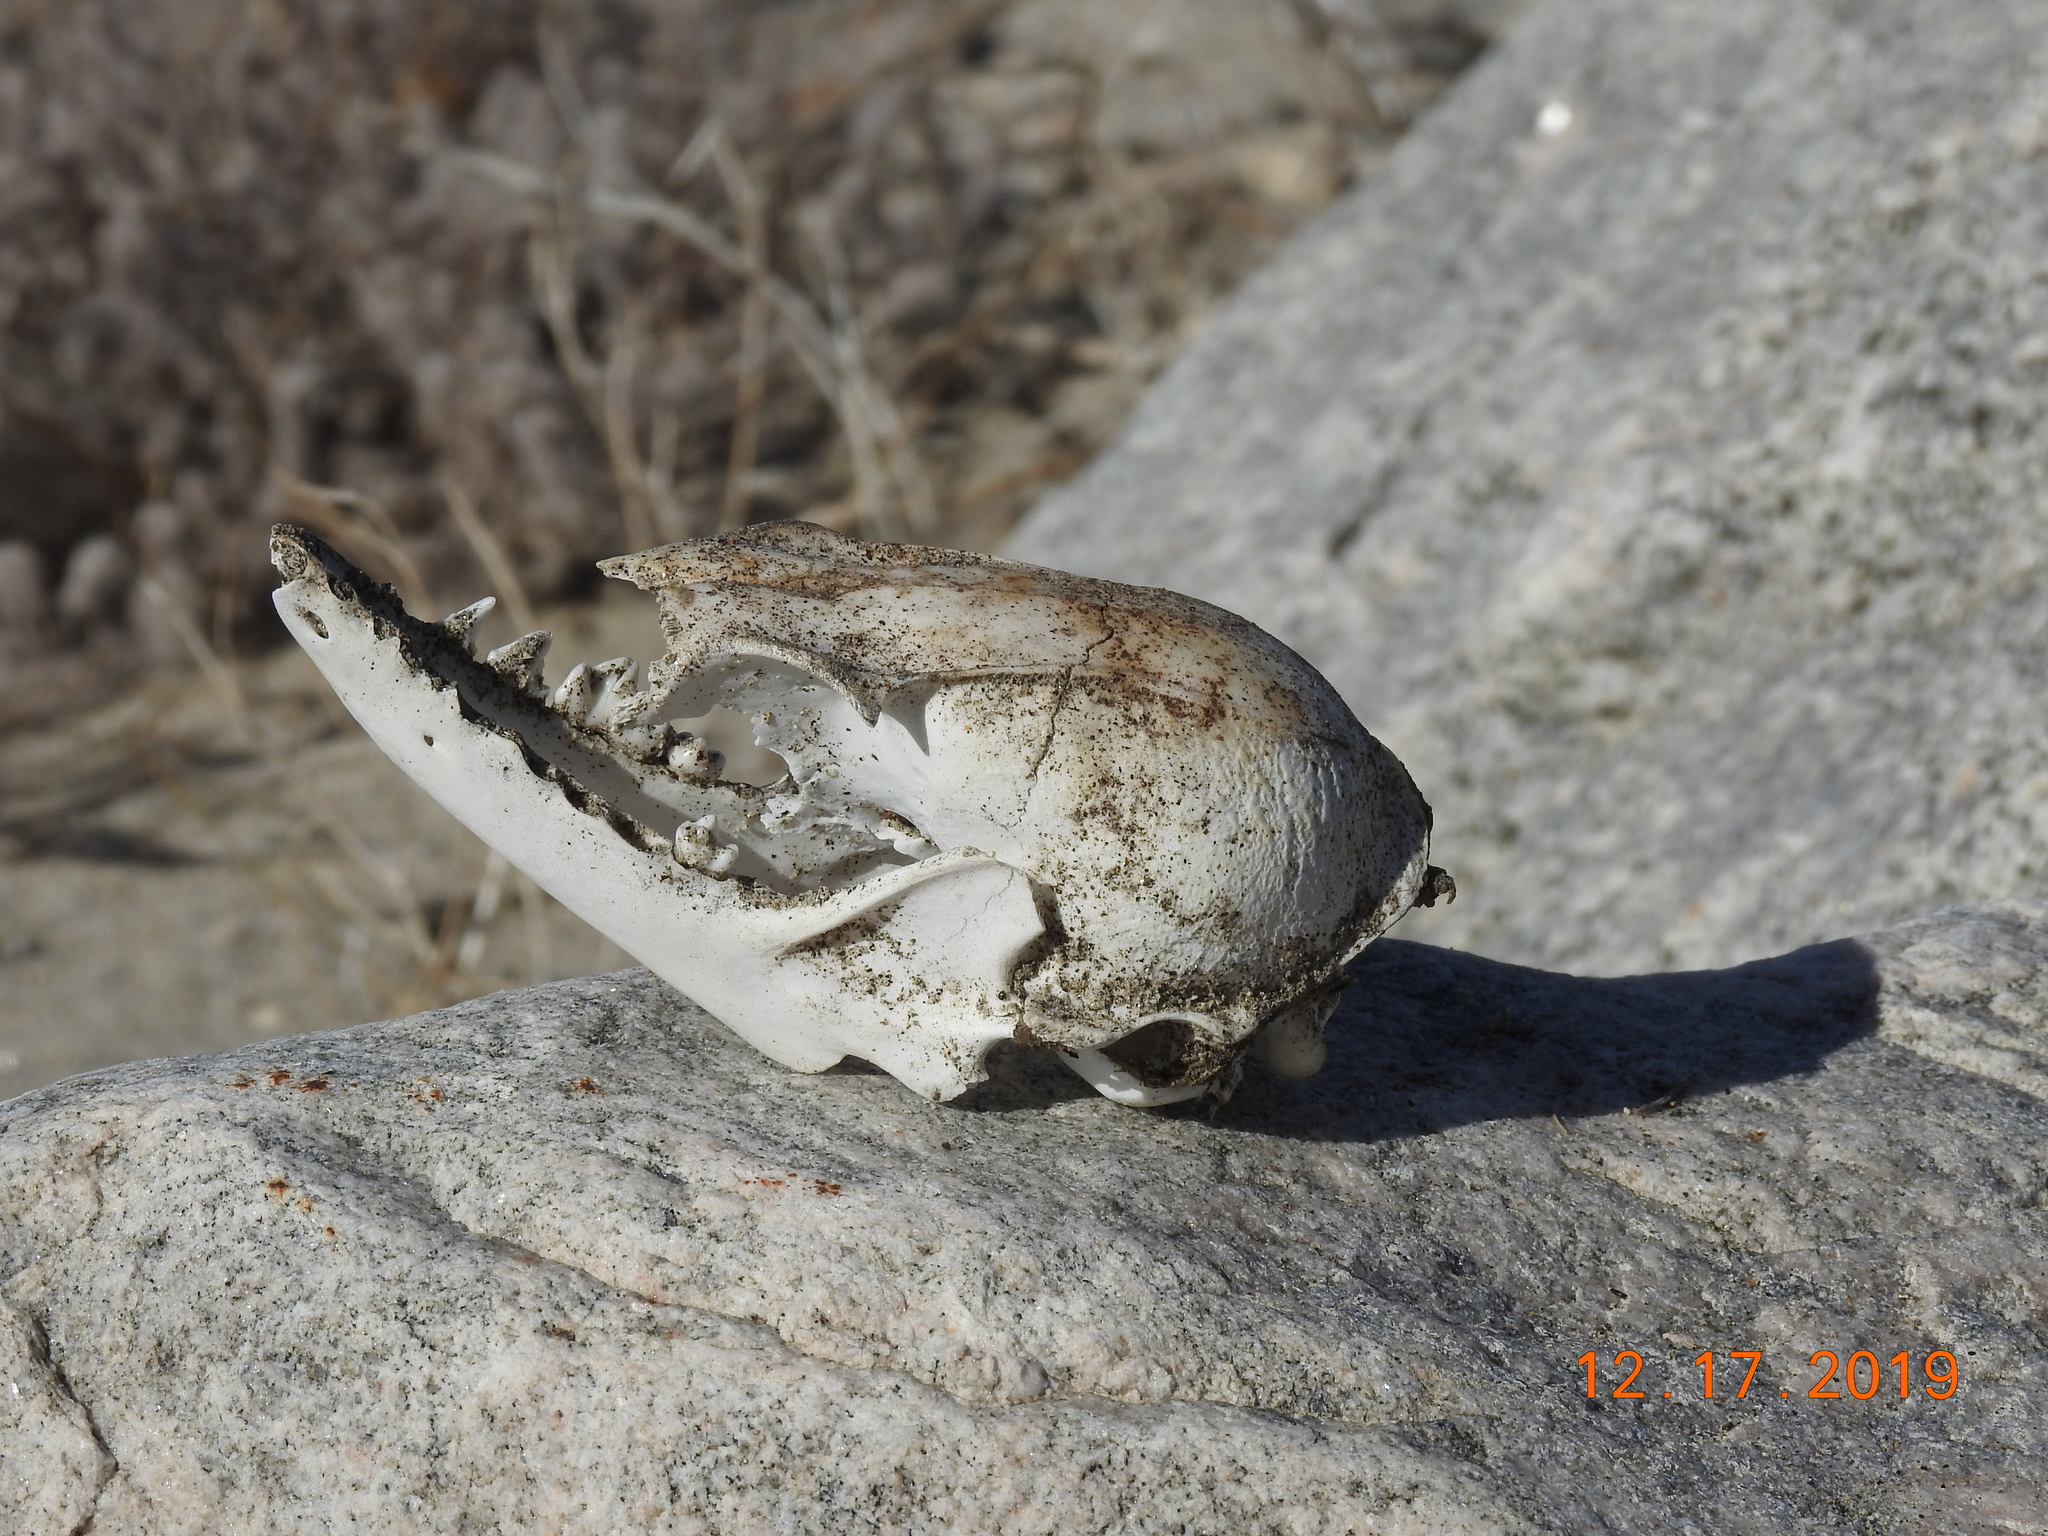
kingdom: Animalia
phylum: Chordata
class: Mammalia
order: Carnivora
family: Canidae
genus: Urocyon
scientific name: Urocyon cinereoargenteus
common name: Gray fox
